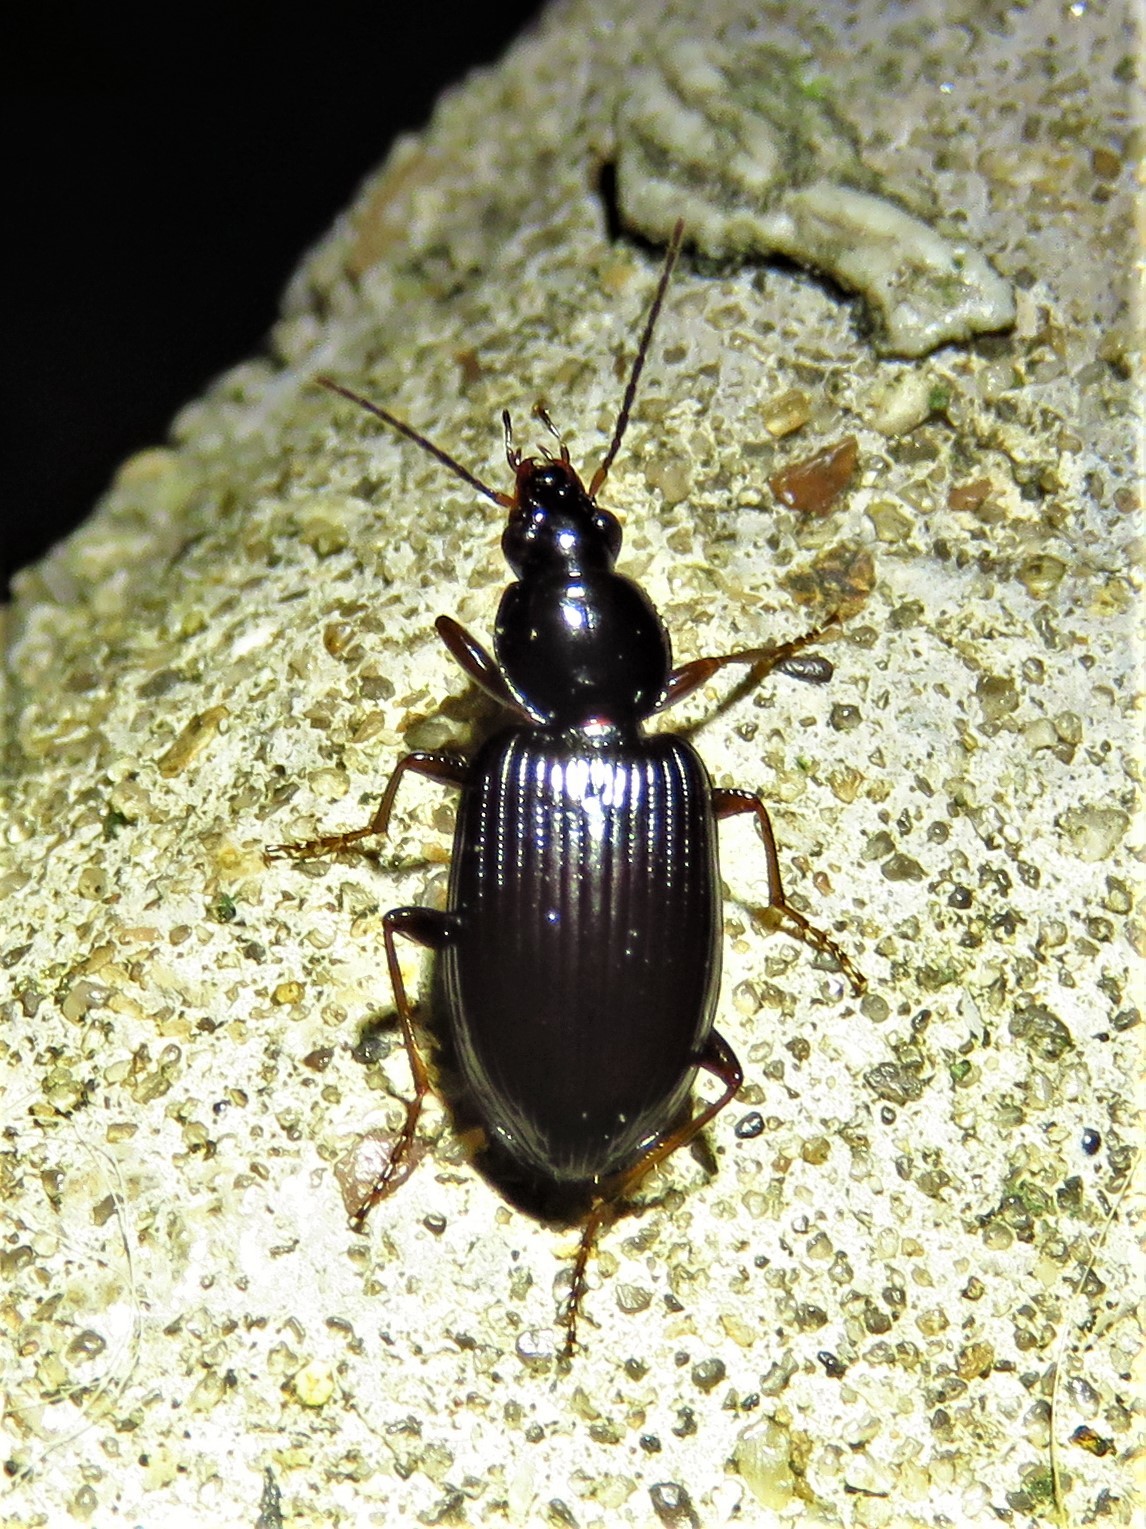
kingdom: Animalia
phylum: Arthropoda
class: Insecta
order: Coleoptera
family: Carabidae
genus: Agonum
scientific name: Agonum punctiforme
